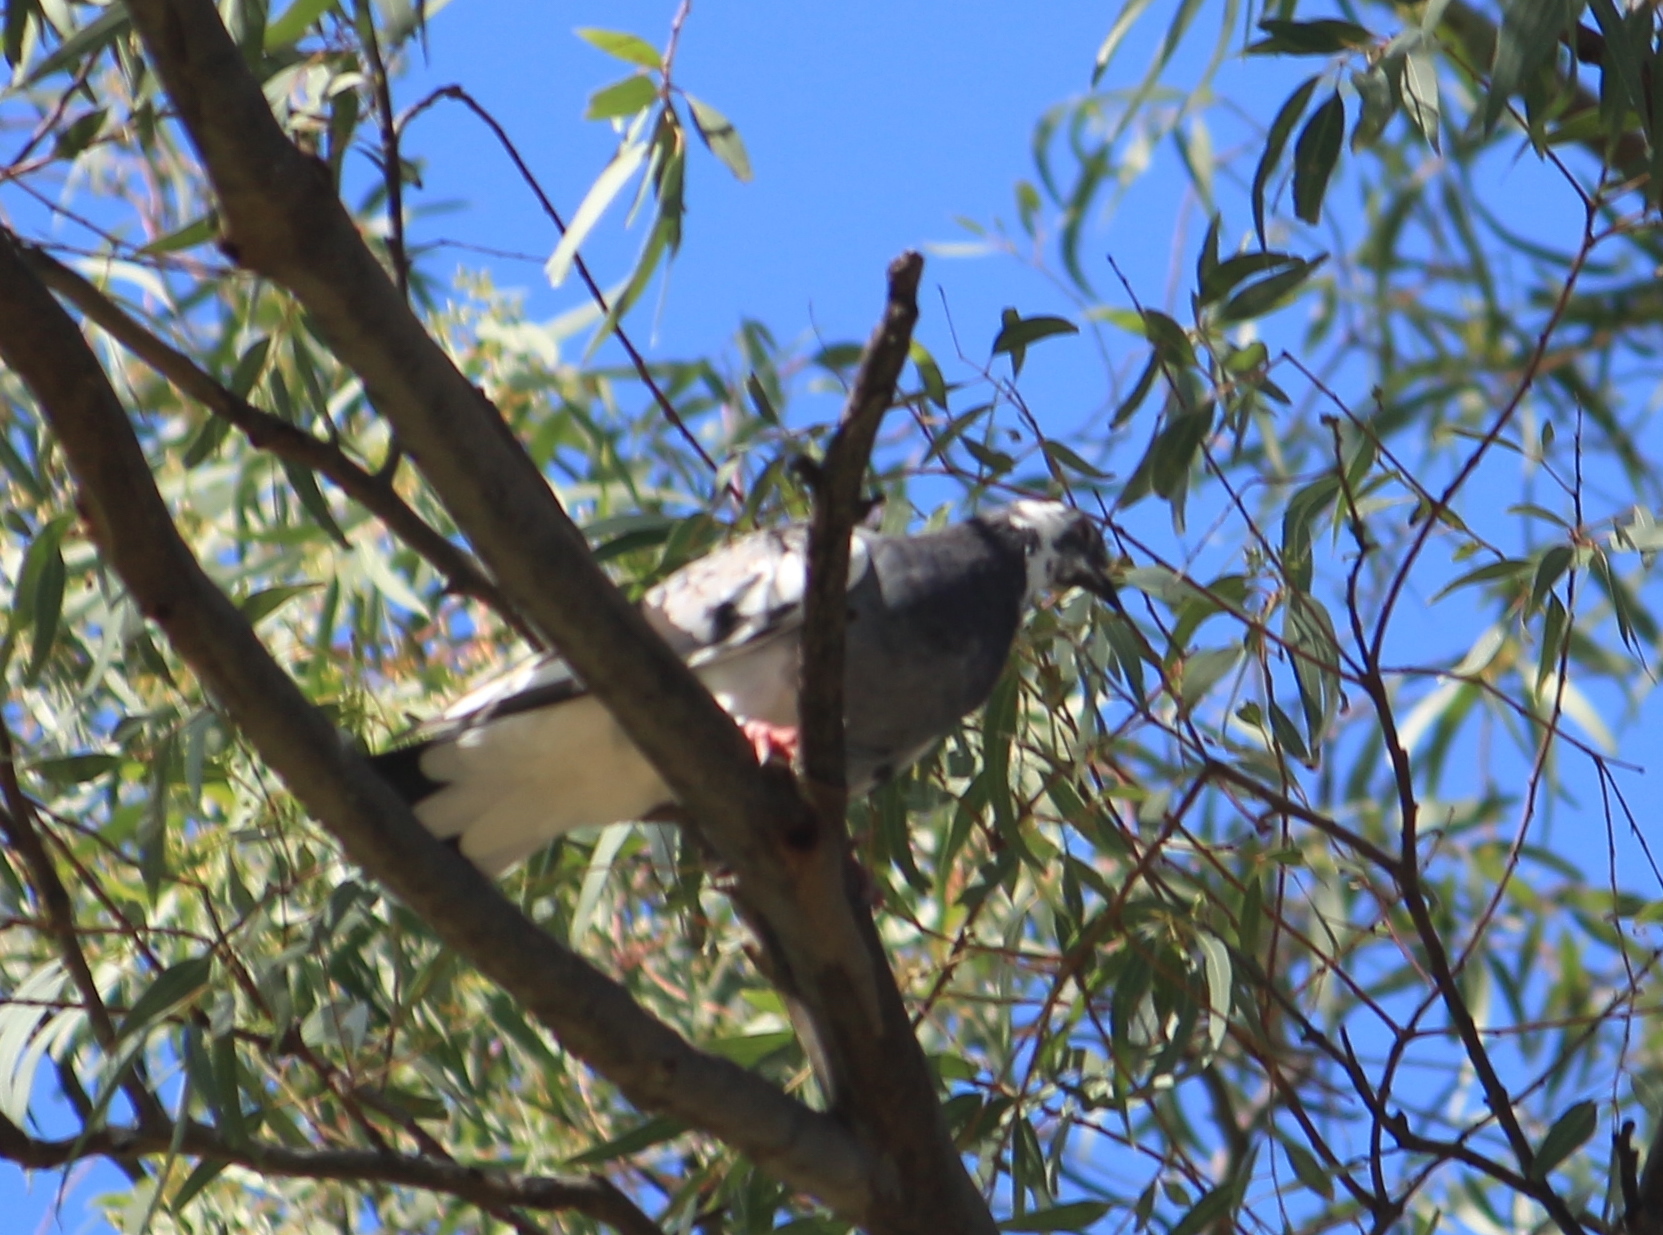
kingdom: Animalia
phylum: Chordata
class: Aves
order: Columbiformes
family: Columbidae
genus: Columba
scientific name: Columba livia
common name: Rock pigeon
